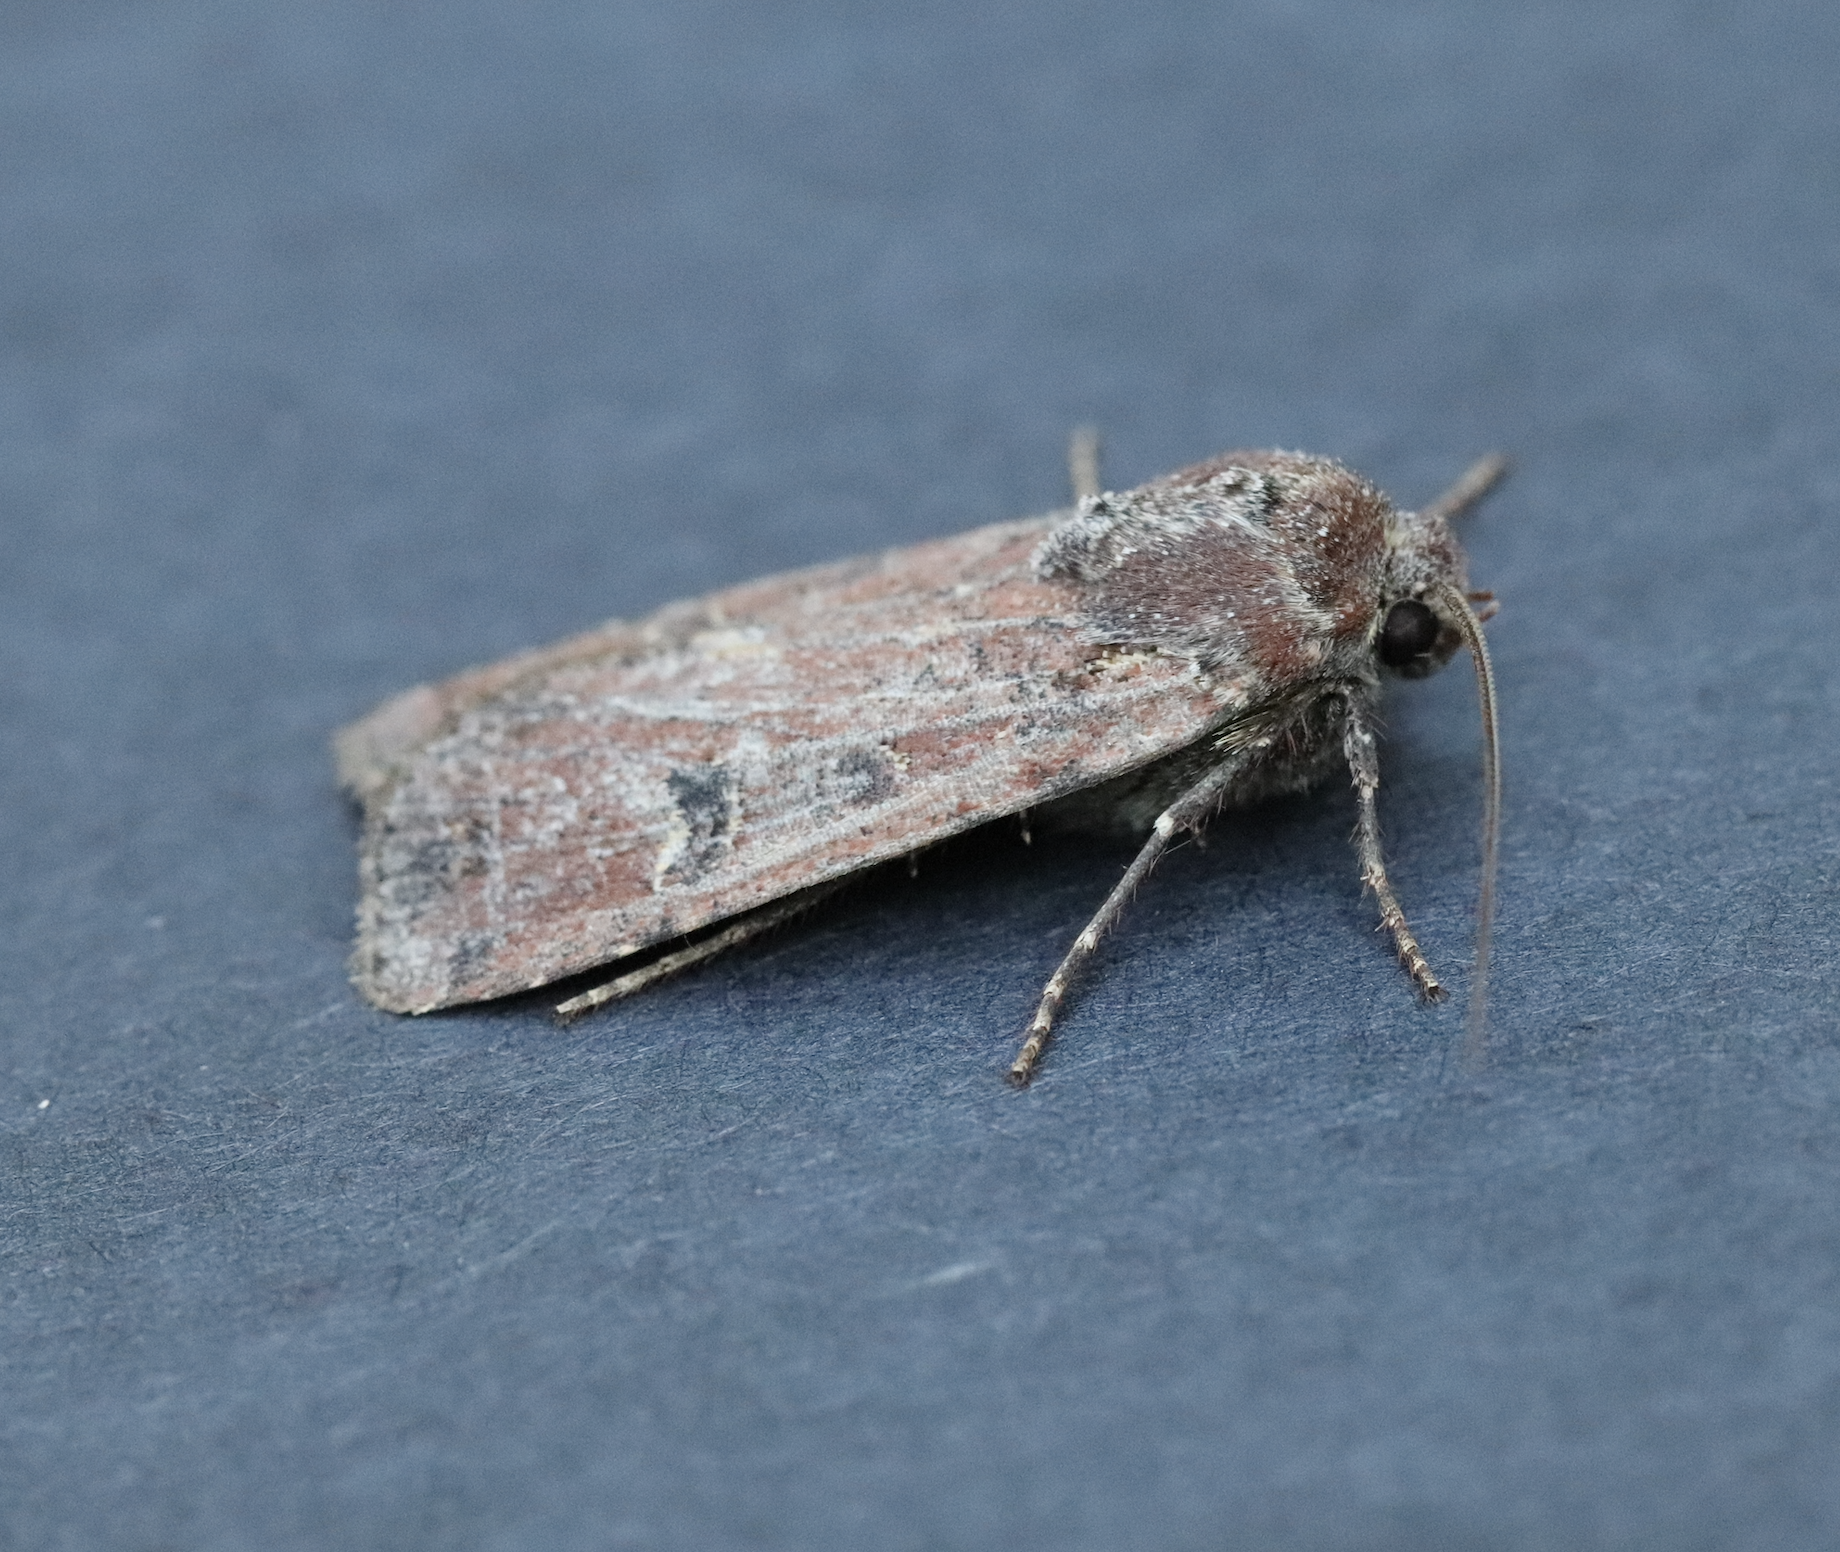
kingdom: Animalia
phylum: Arthropoda
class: Insecta
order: Lepidoptera
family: Noctuidae
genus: Euxoa
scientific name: Euxoa ochrogaster
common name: Red-backed cutworm moth
